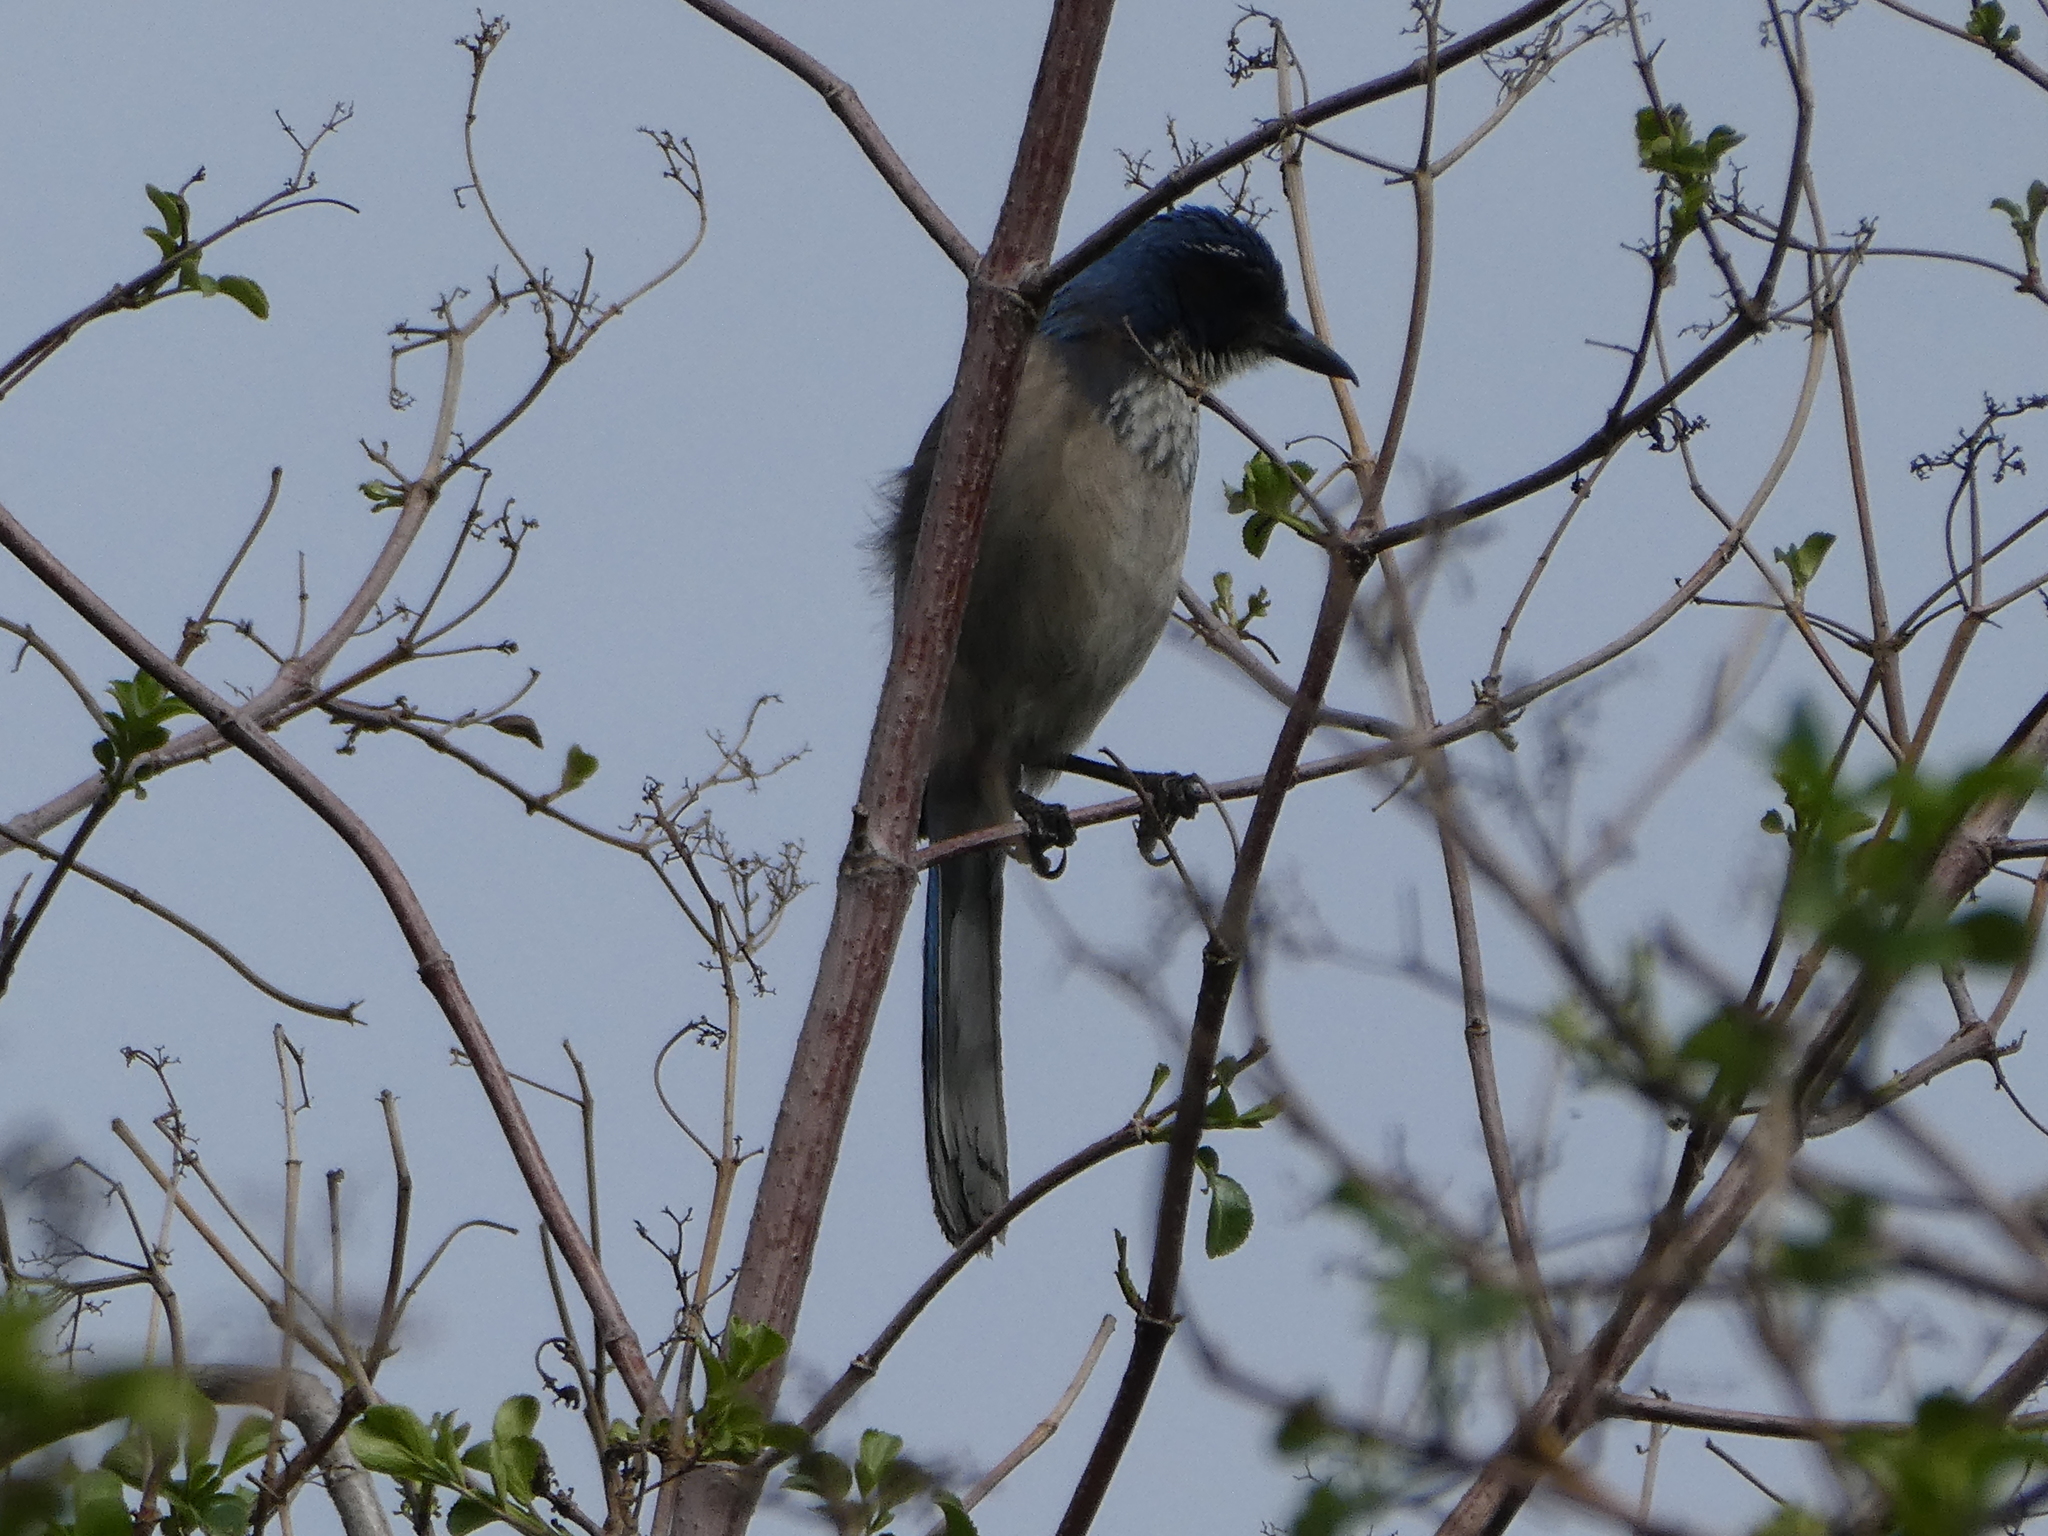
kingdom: Animalia
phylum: Chordata
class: Aves
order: Passeriformes
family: Corvidae
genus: Aphelocoma
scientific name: Aphelocoma californica
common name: California scrub-jay
